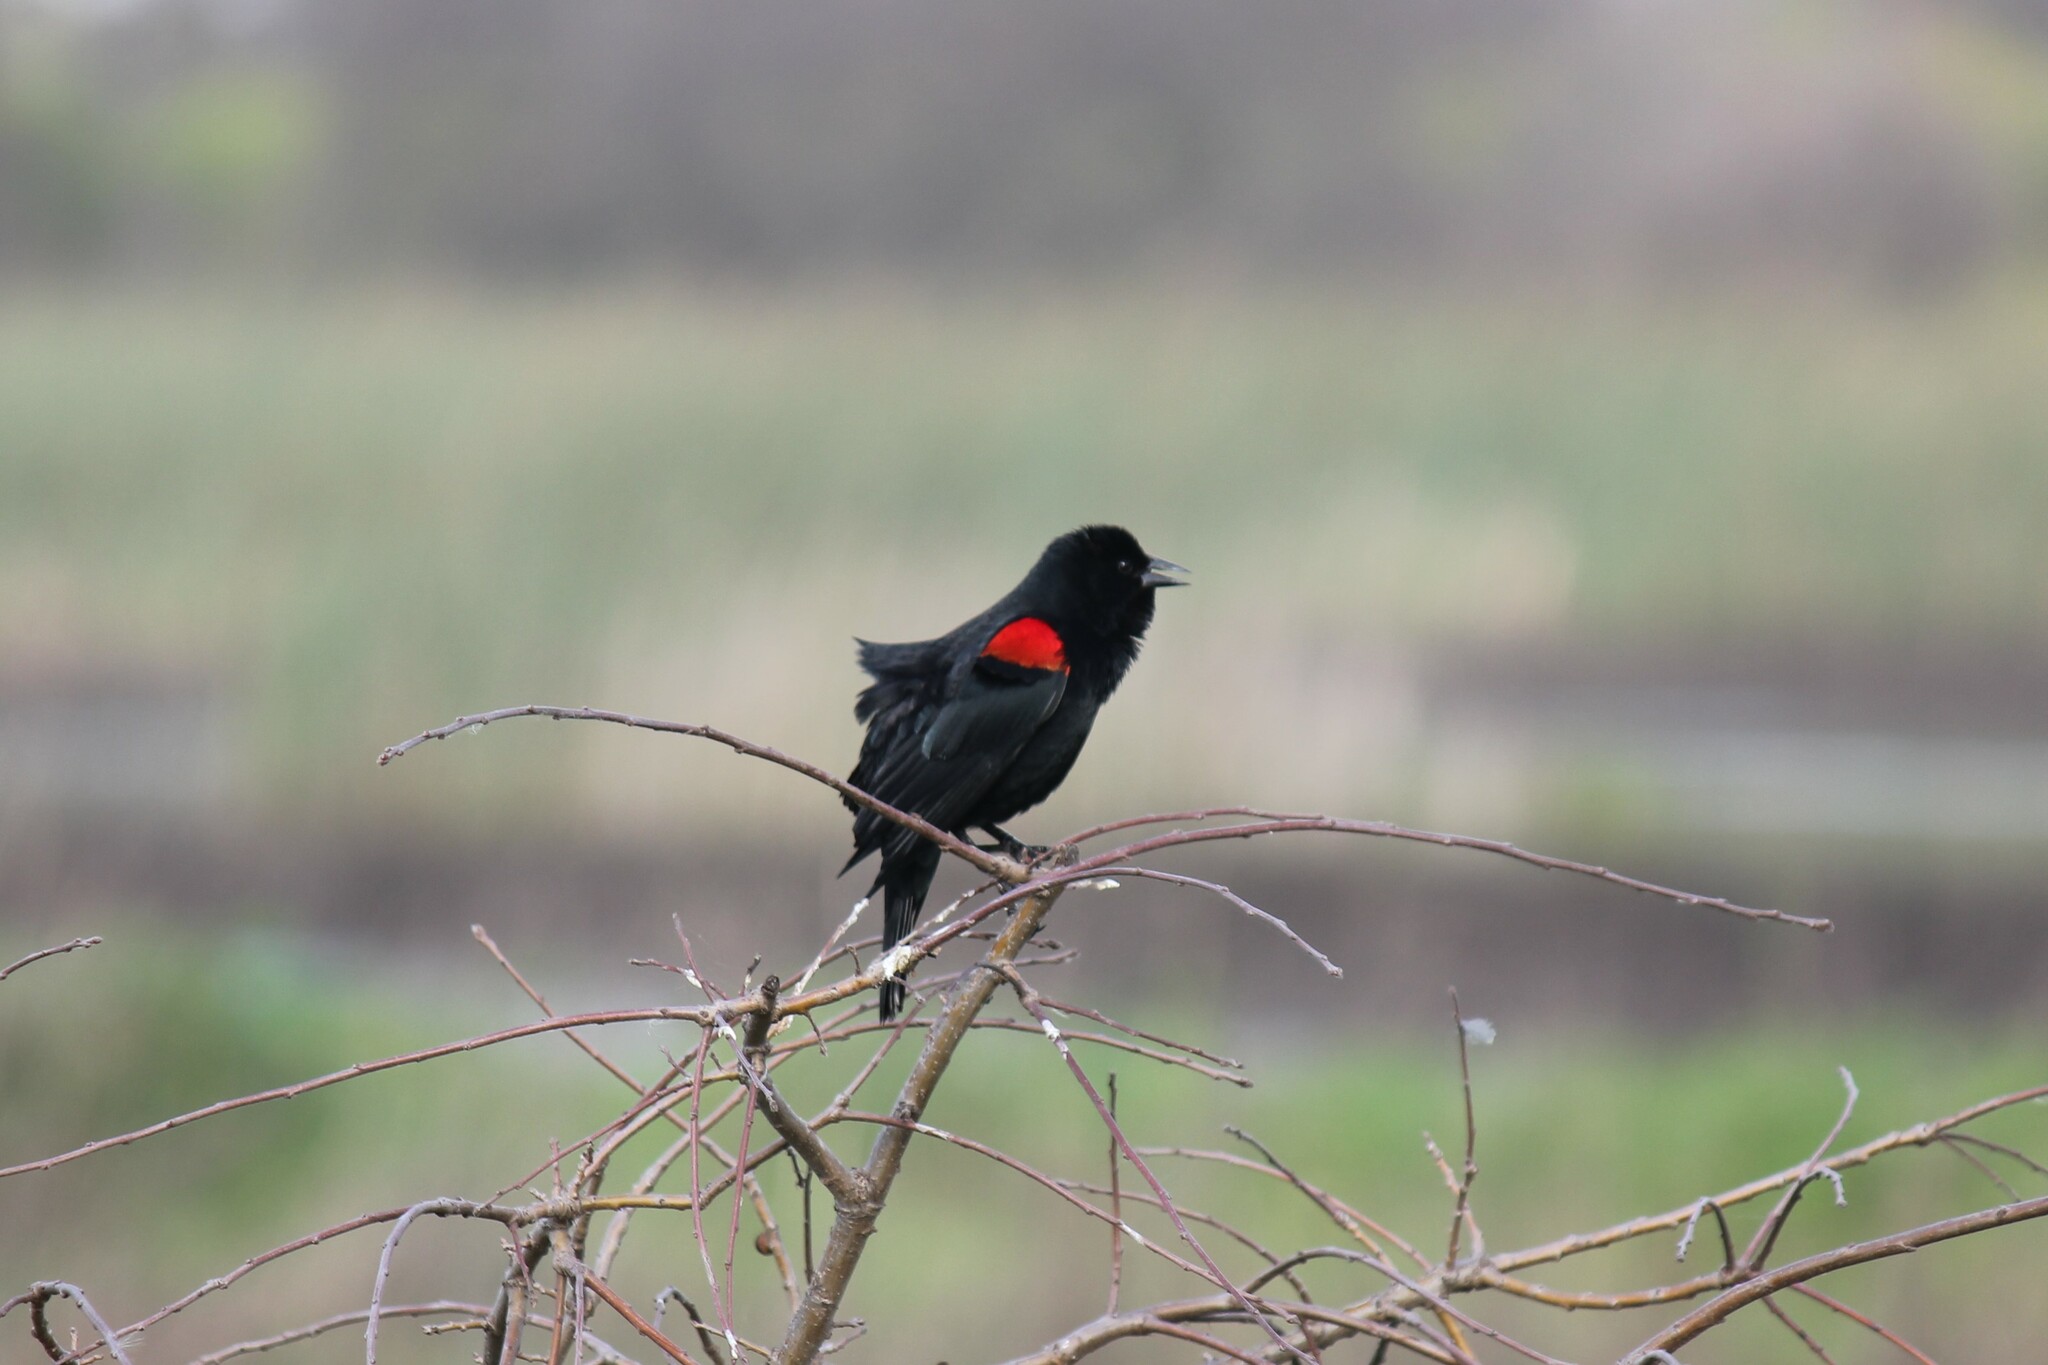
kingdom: Animalia
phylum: Chordata
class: Aves
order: Passeriformes
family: Icteridae
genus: Agelaius
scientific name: Agelaius phoeniceus
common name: Red-winged blackbird
